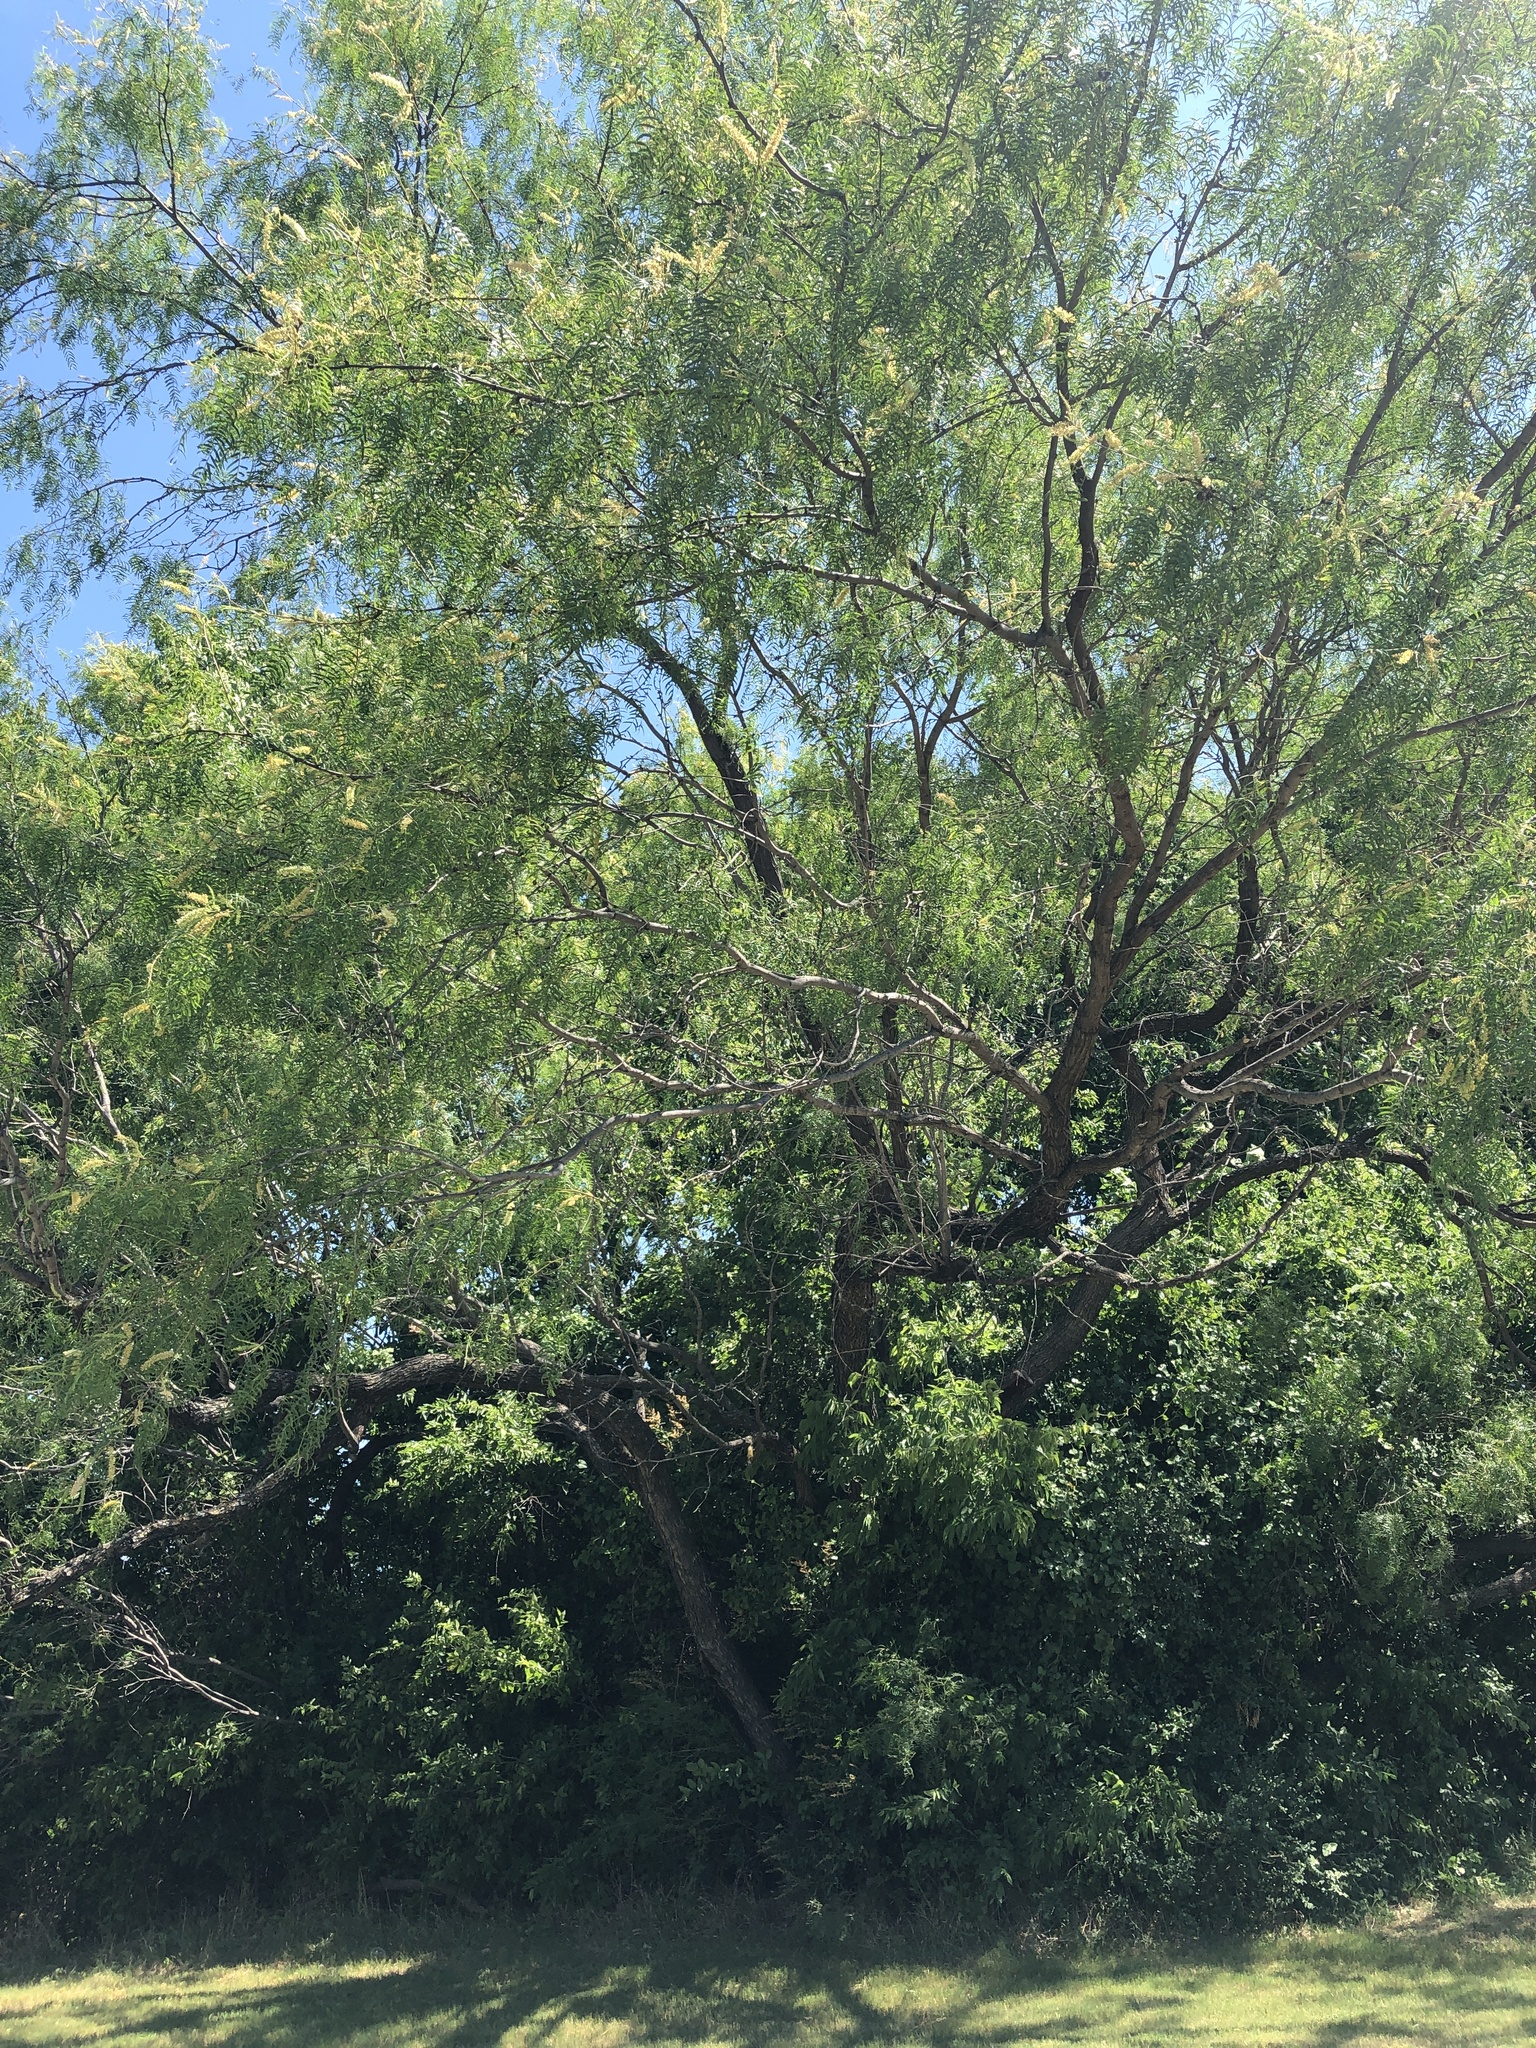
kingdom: Plantae
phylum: Tracheophyta
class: Magnoliopsida
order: Fabales
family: Fabaceae
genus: Prosopis
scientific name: Prosopis glandulosa
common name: Honey mesquite
